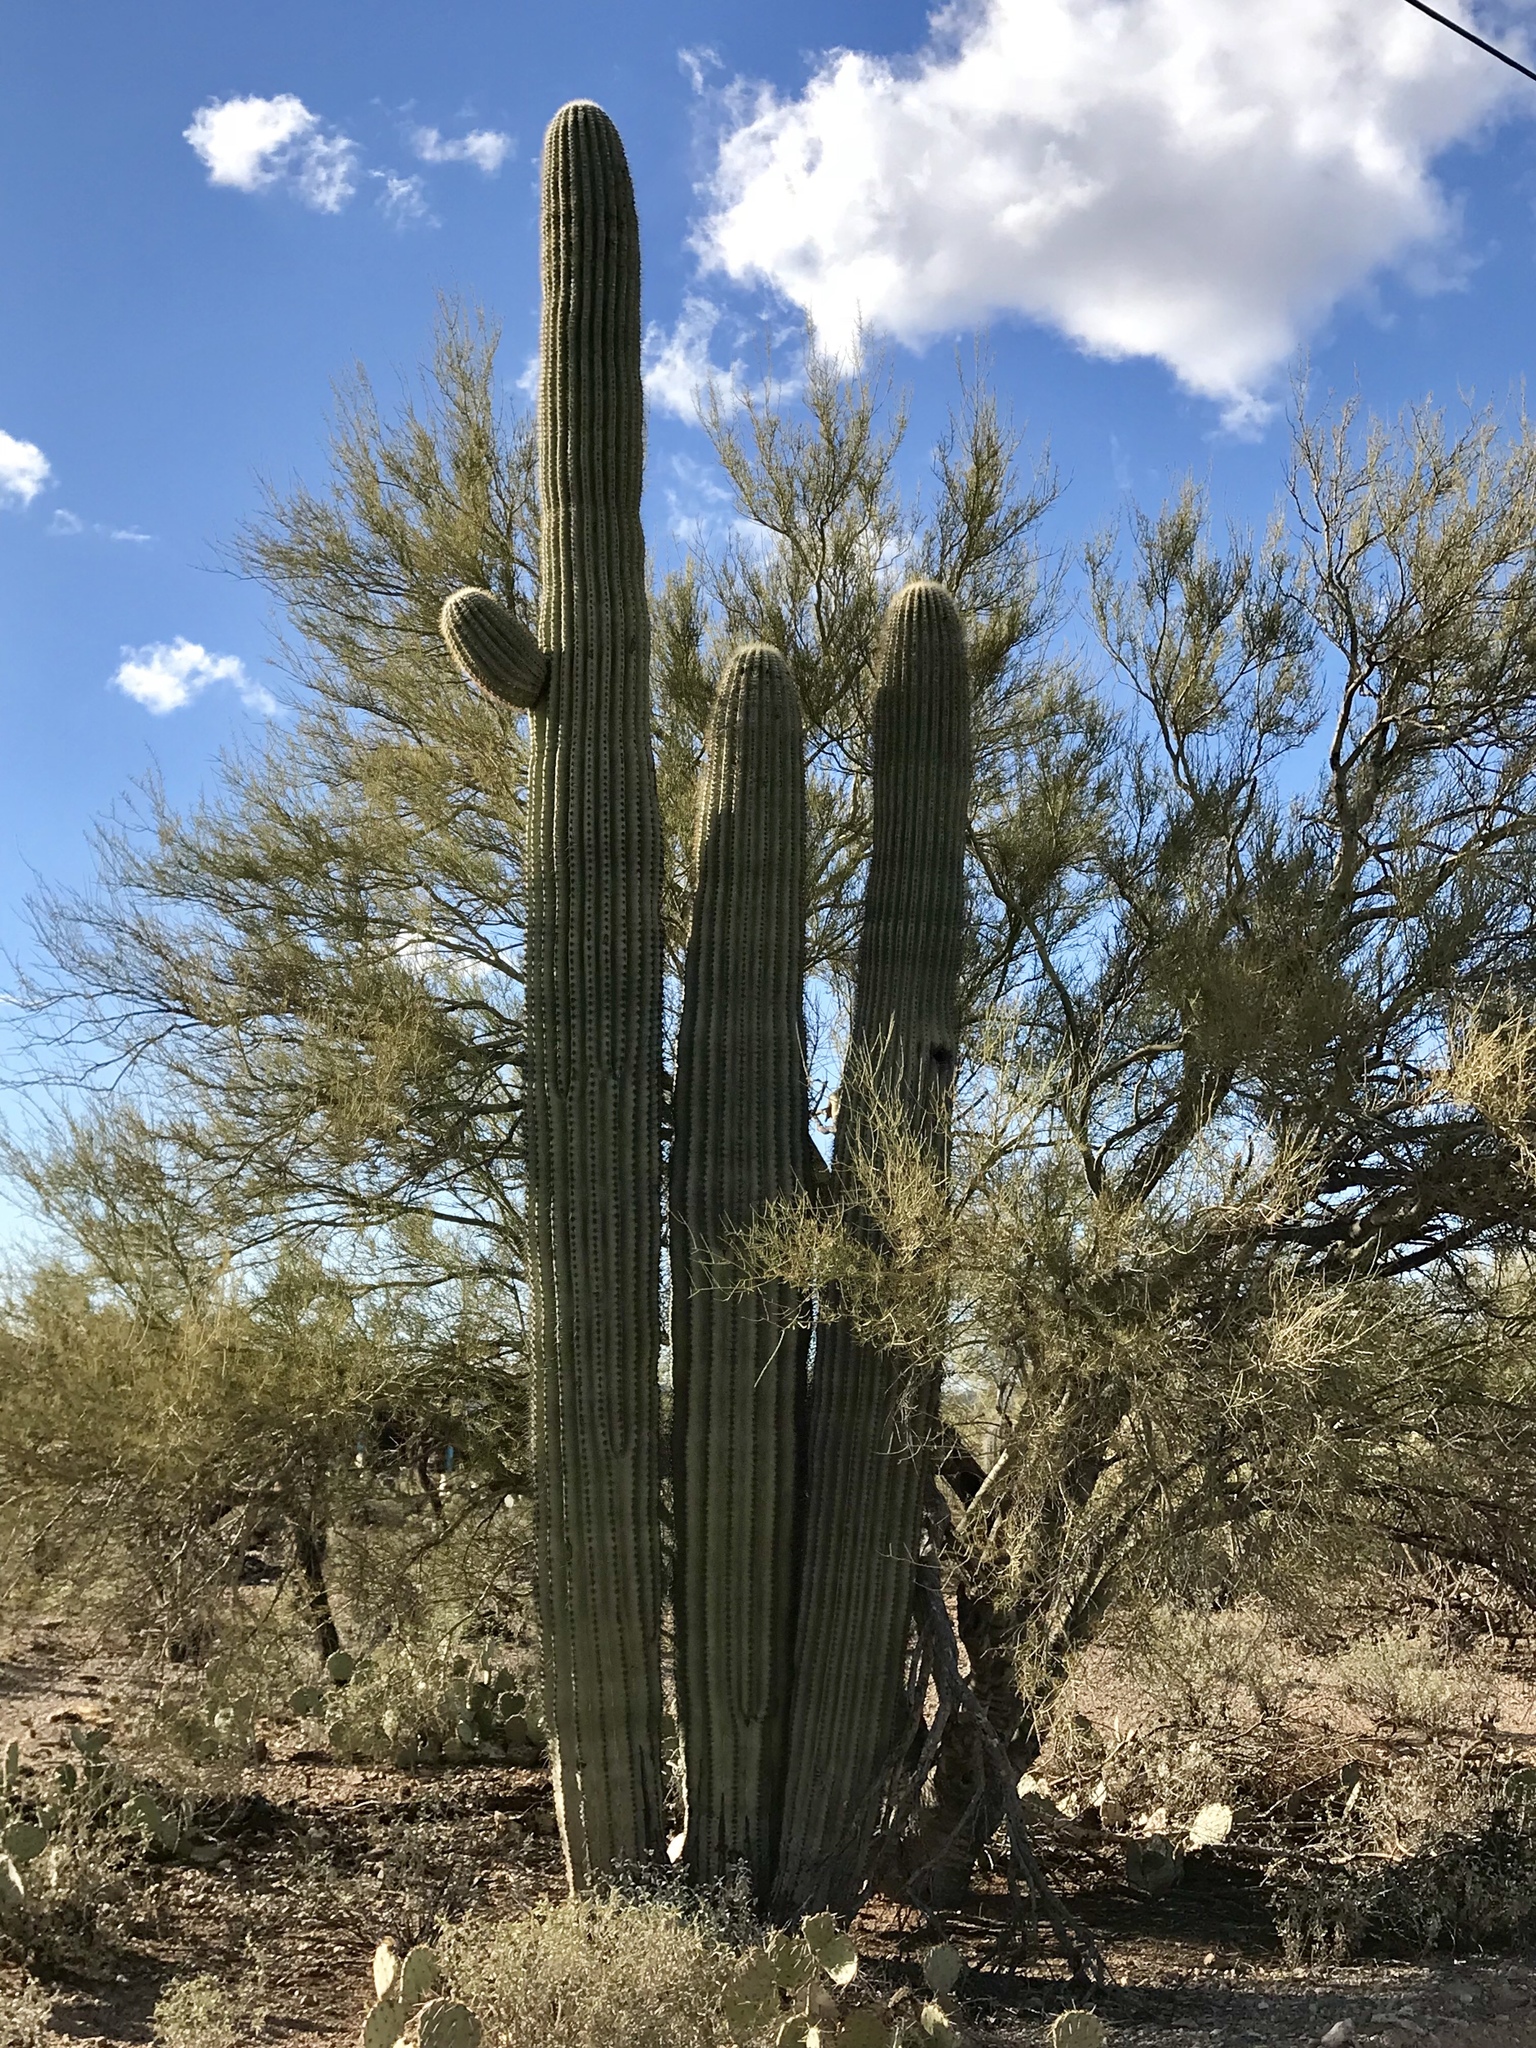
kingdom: Plantae
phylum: Tracheophyta
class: Magnoliopsida
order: Caryophyllales
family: Cactaceae
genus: Carnegiea
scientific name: Carnegiea gigantea
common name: Saguaro
